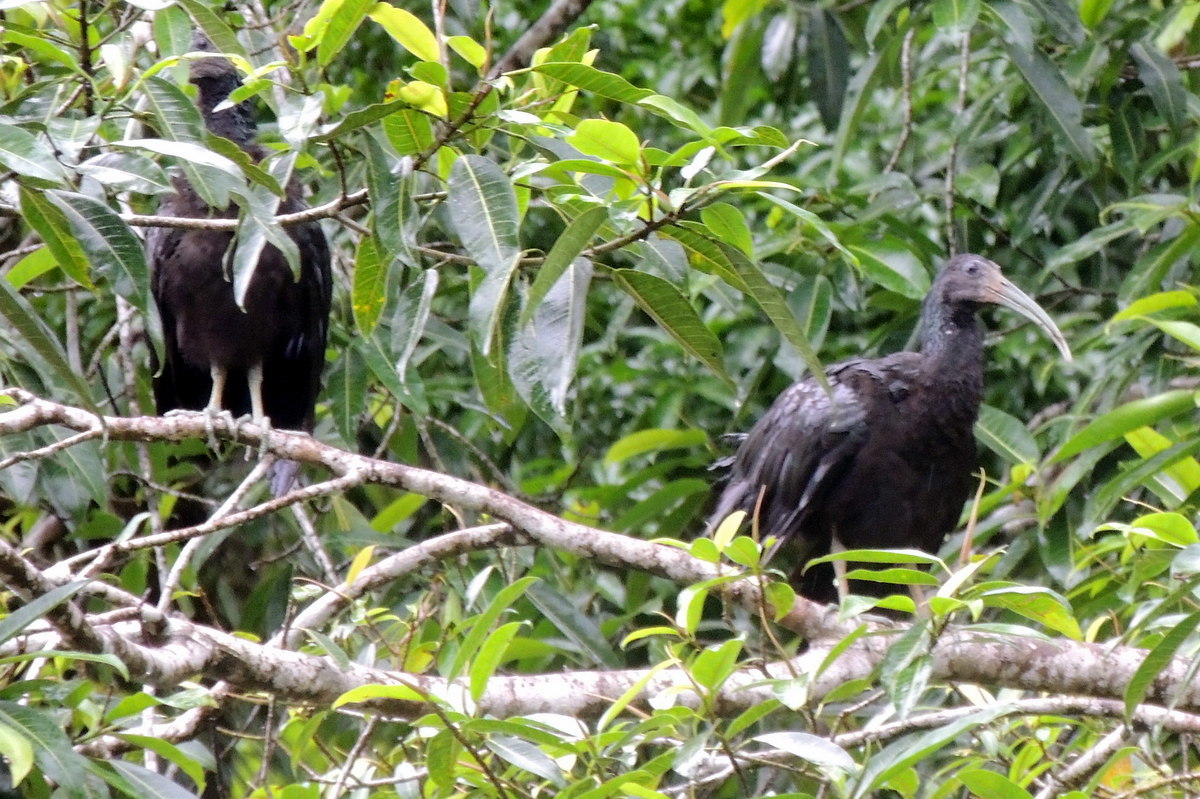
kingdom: Animalia
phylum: Chordata
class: Aves
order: Pelecaniformes
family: Threskiornithidae
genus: Mesembrinibis
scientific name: Mesembrinibis cayennensis
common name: Green ibis
